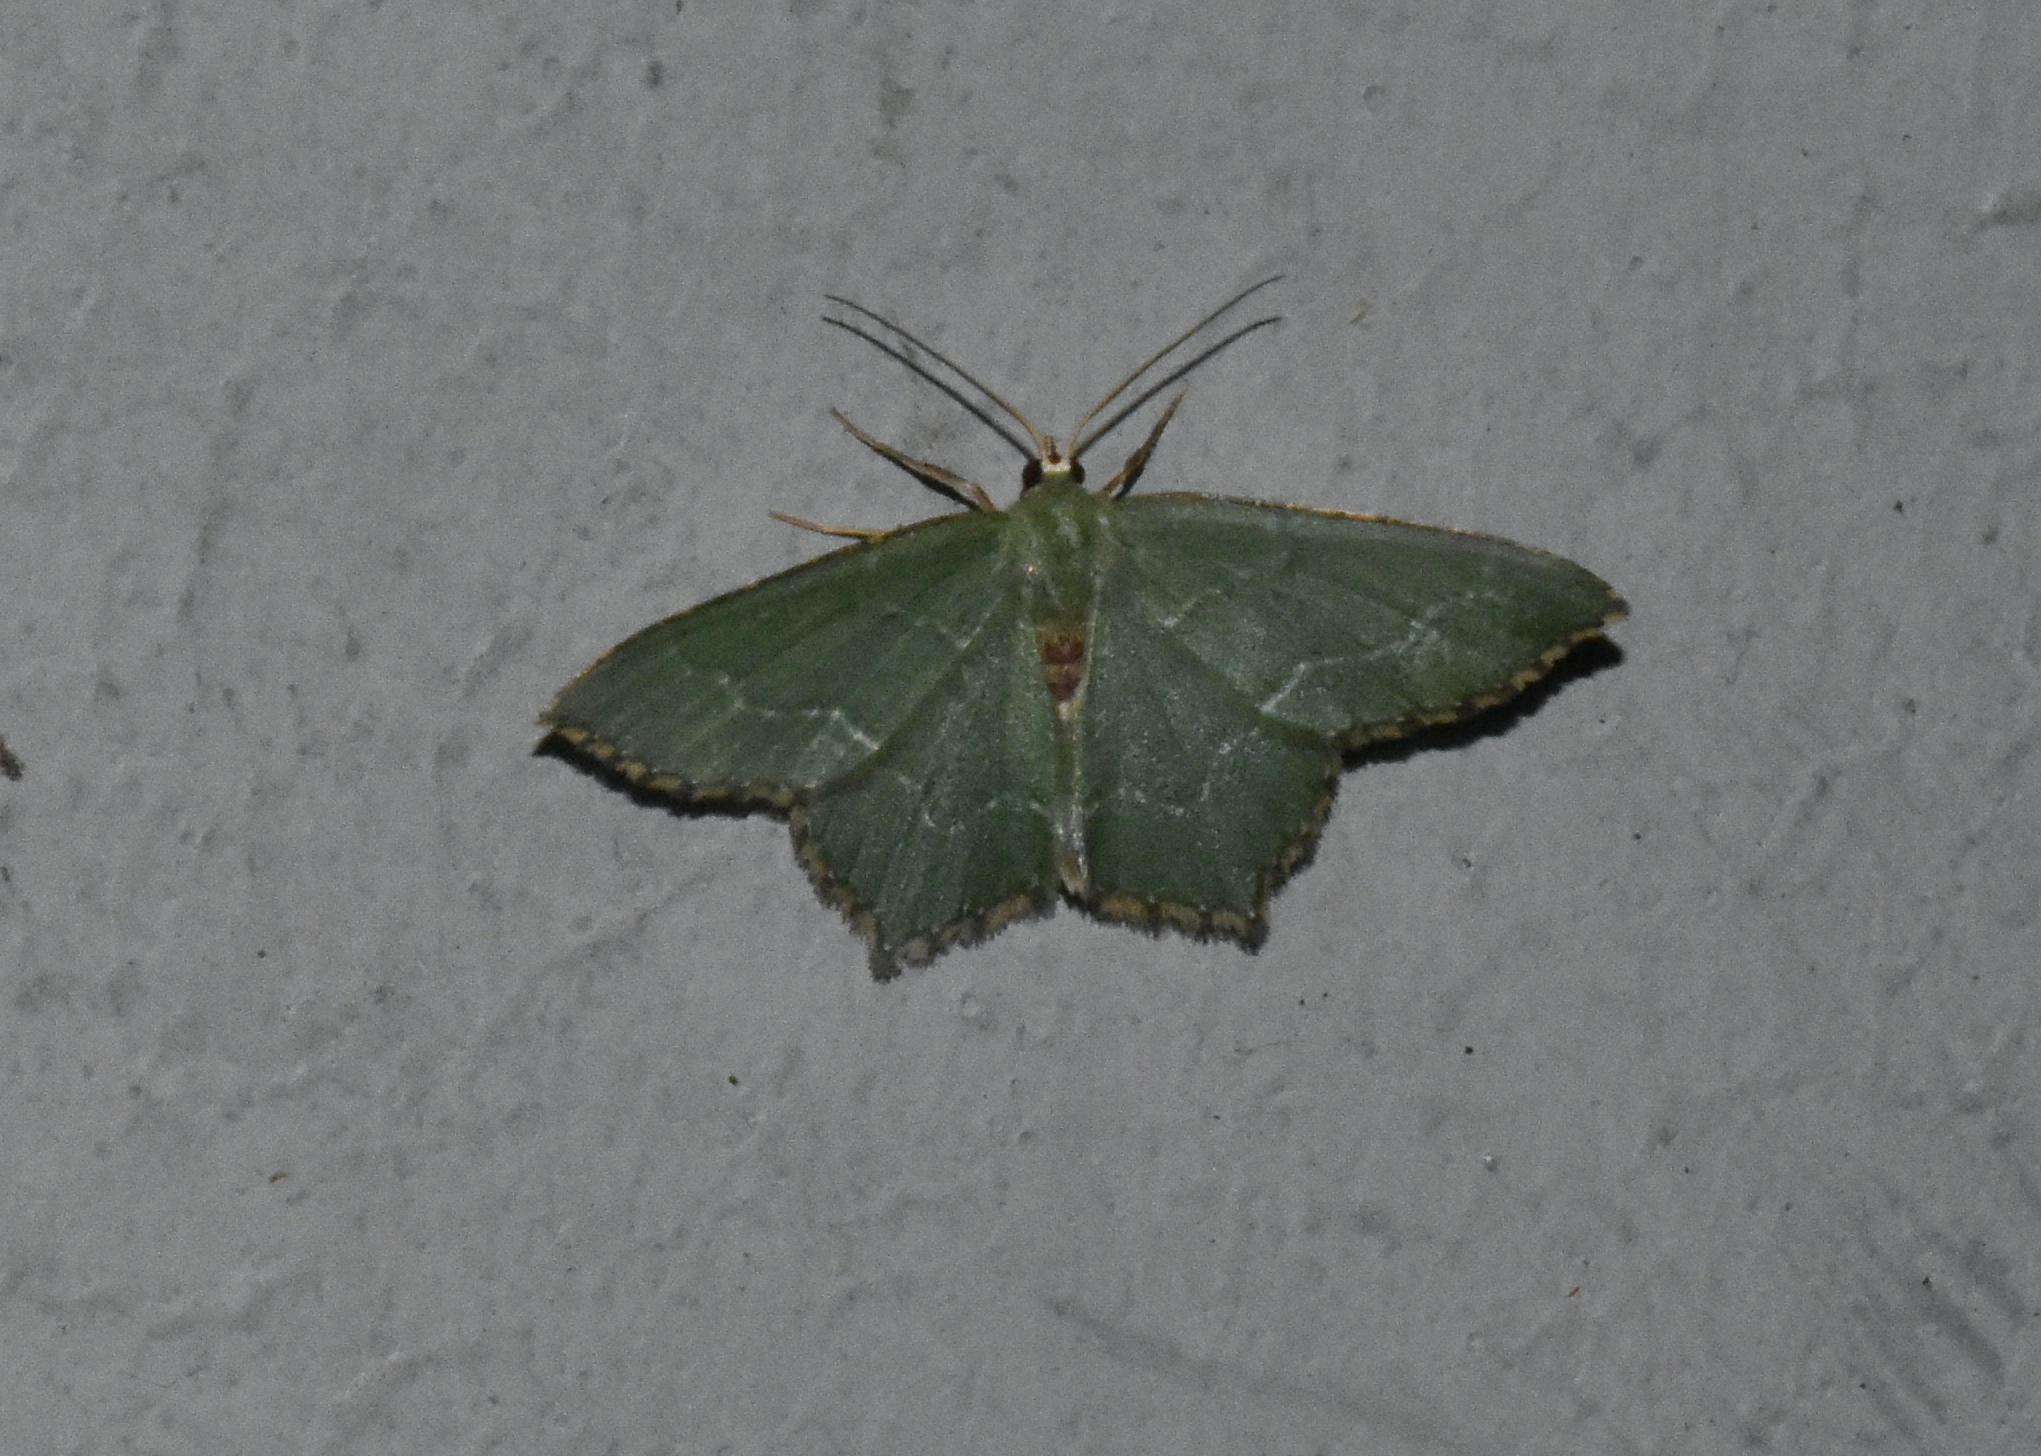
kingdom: Animalia
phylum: Arthropoda
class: Insecta
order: Lepidoptera
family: Geometridae
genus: Hemithea
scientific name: Hemithea aestivaria
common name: Common emerald
